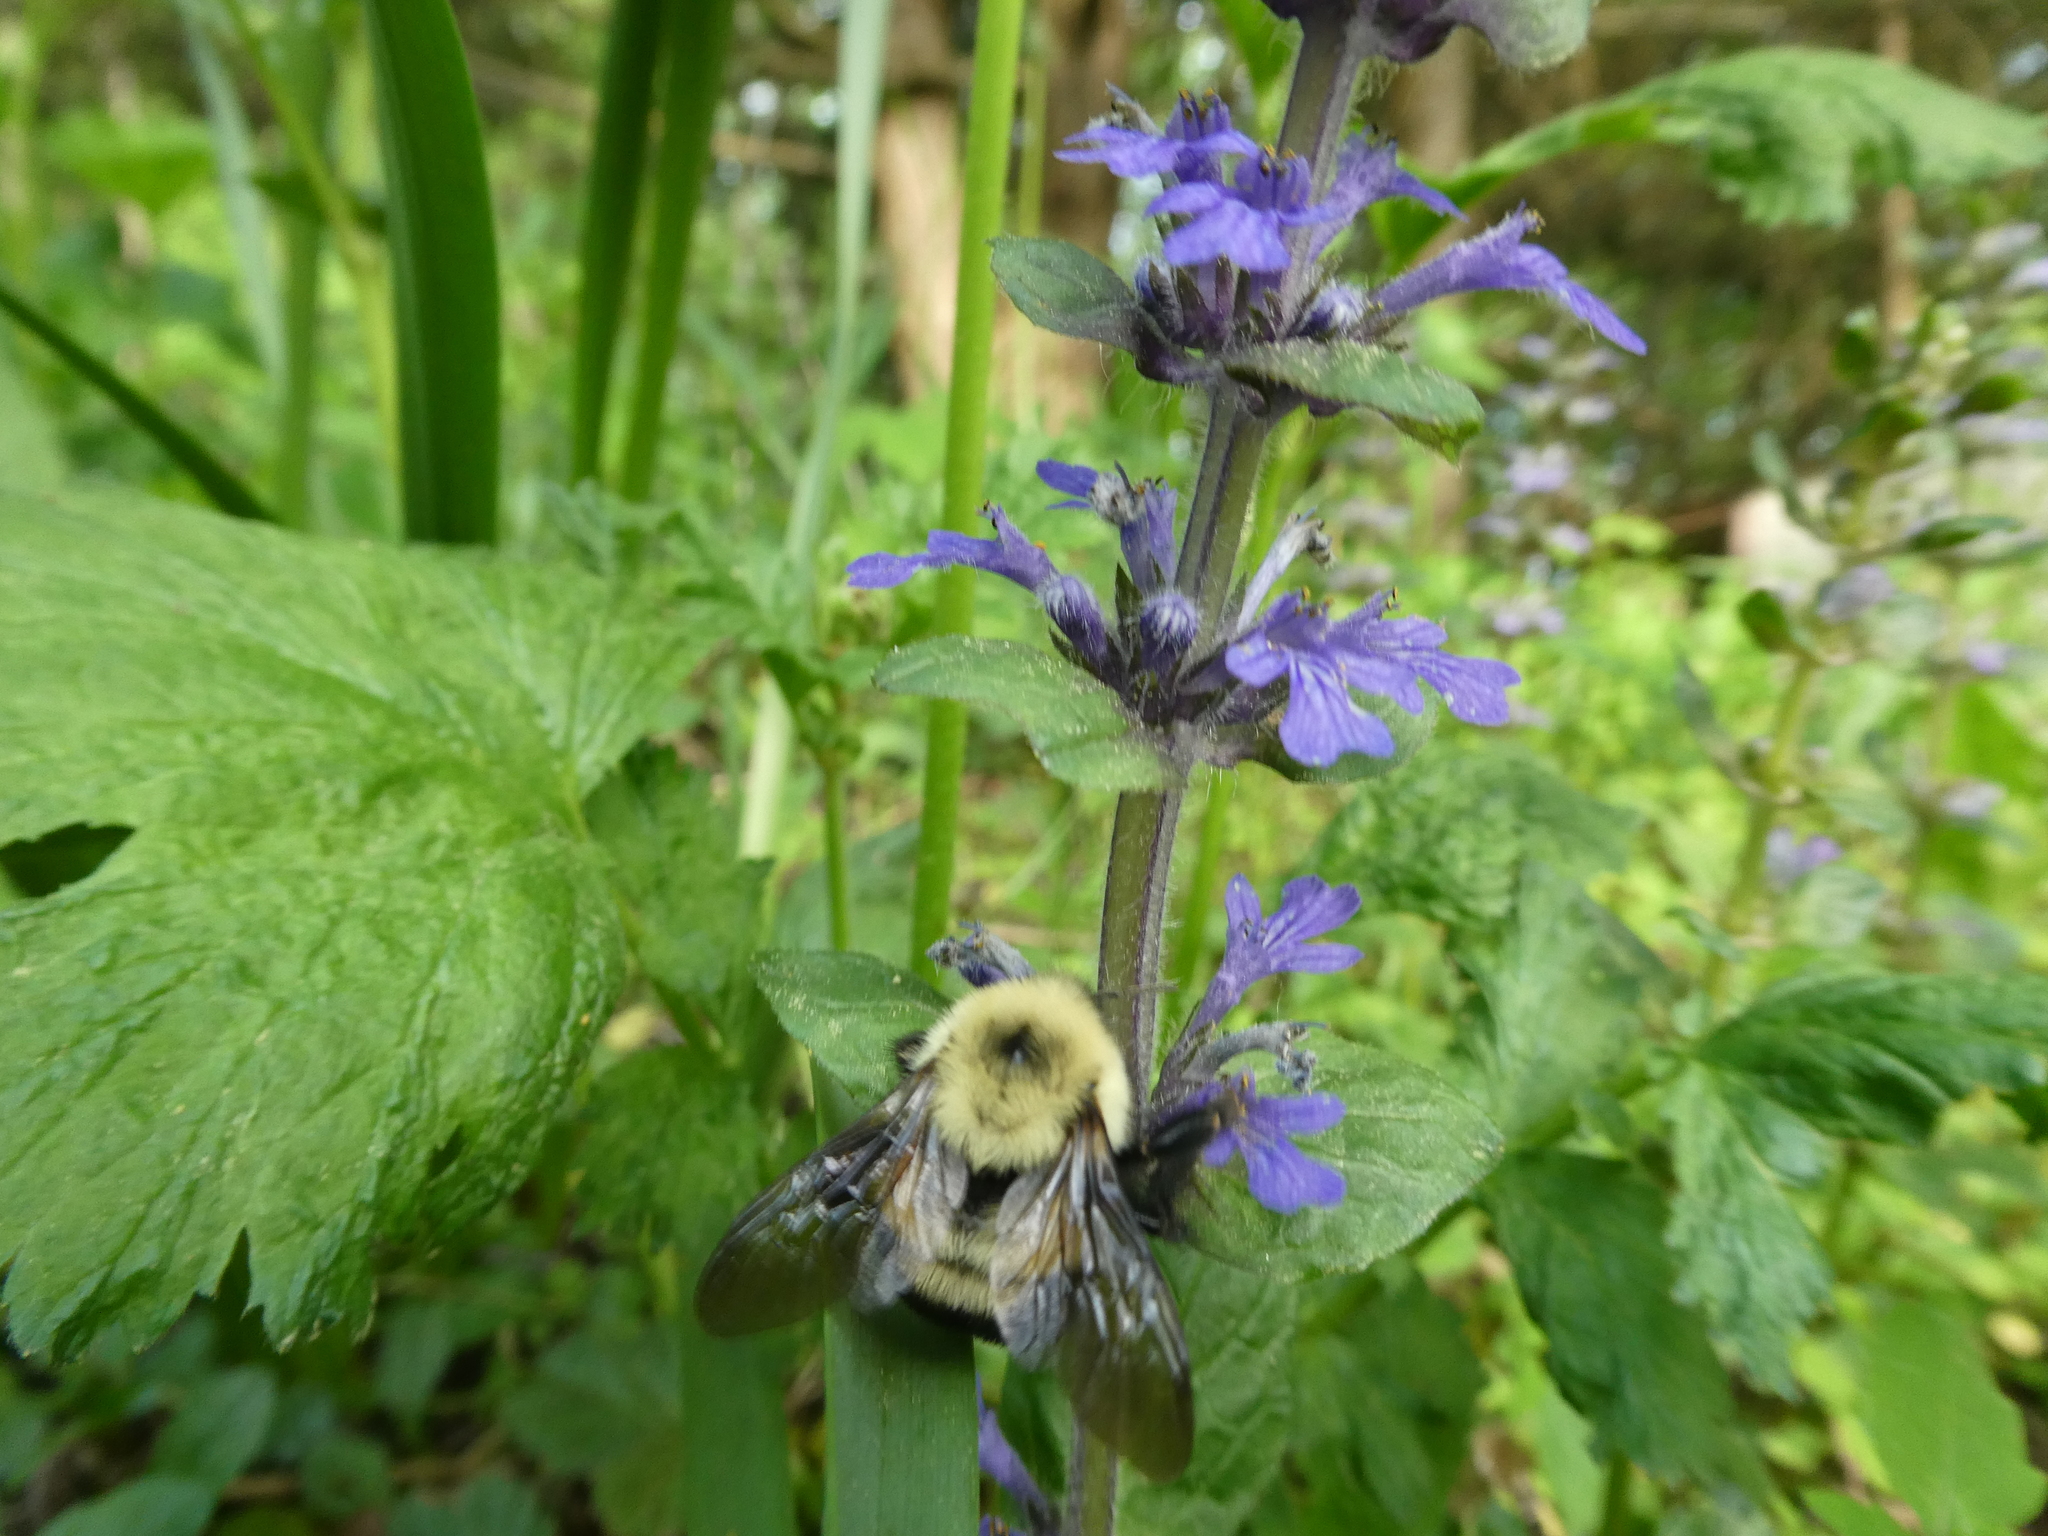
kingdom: Animalia
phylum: Arthropoda
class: Insecta
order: Hymenoptera
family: Apidae
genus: Bombus
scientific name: Bombus bimaculatus
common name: Two-spotted bumble bee
